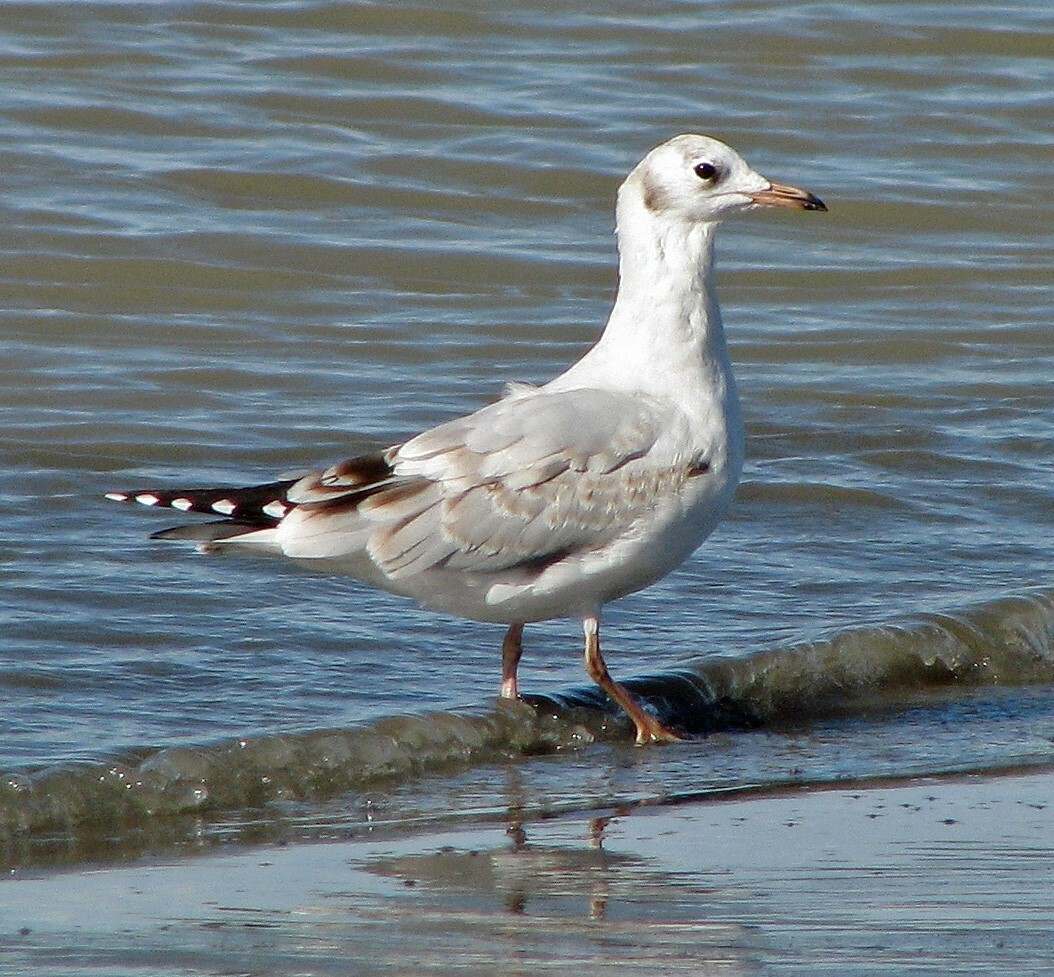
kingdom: Animalia
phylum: Chordata
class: Aves
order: Charadriiformes
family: Laridae
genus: Chroicocephalus
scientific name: Chroicocephalus maculipennis
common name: Brown-hooded gull
